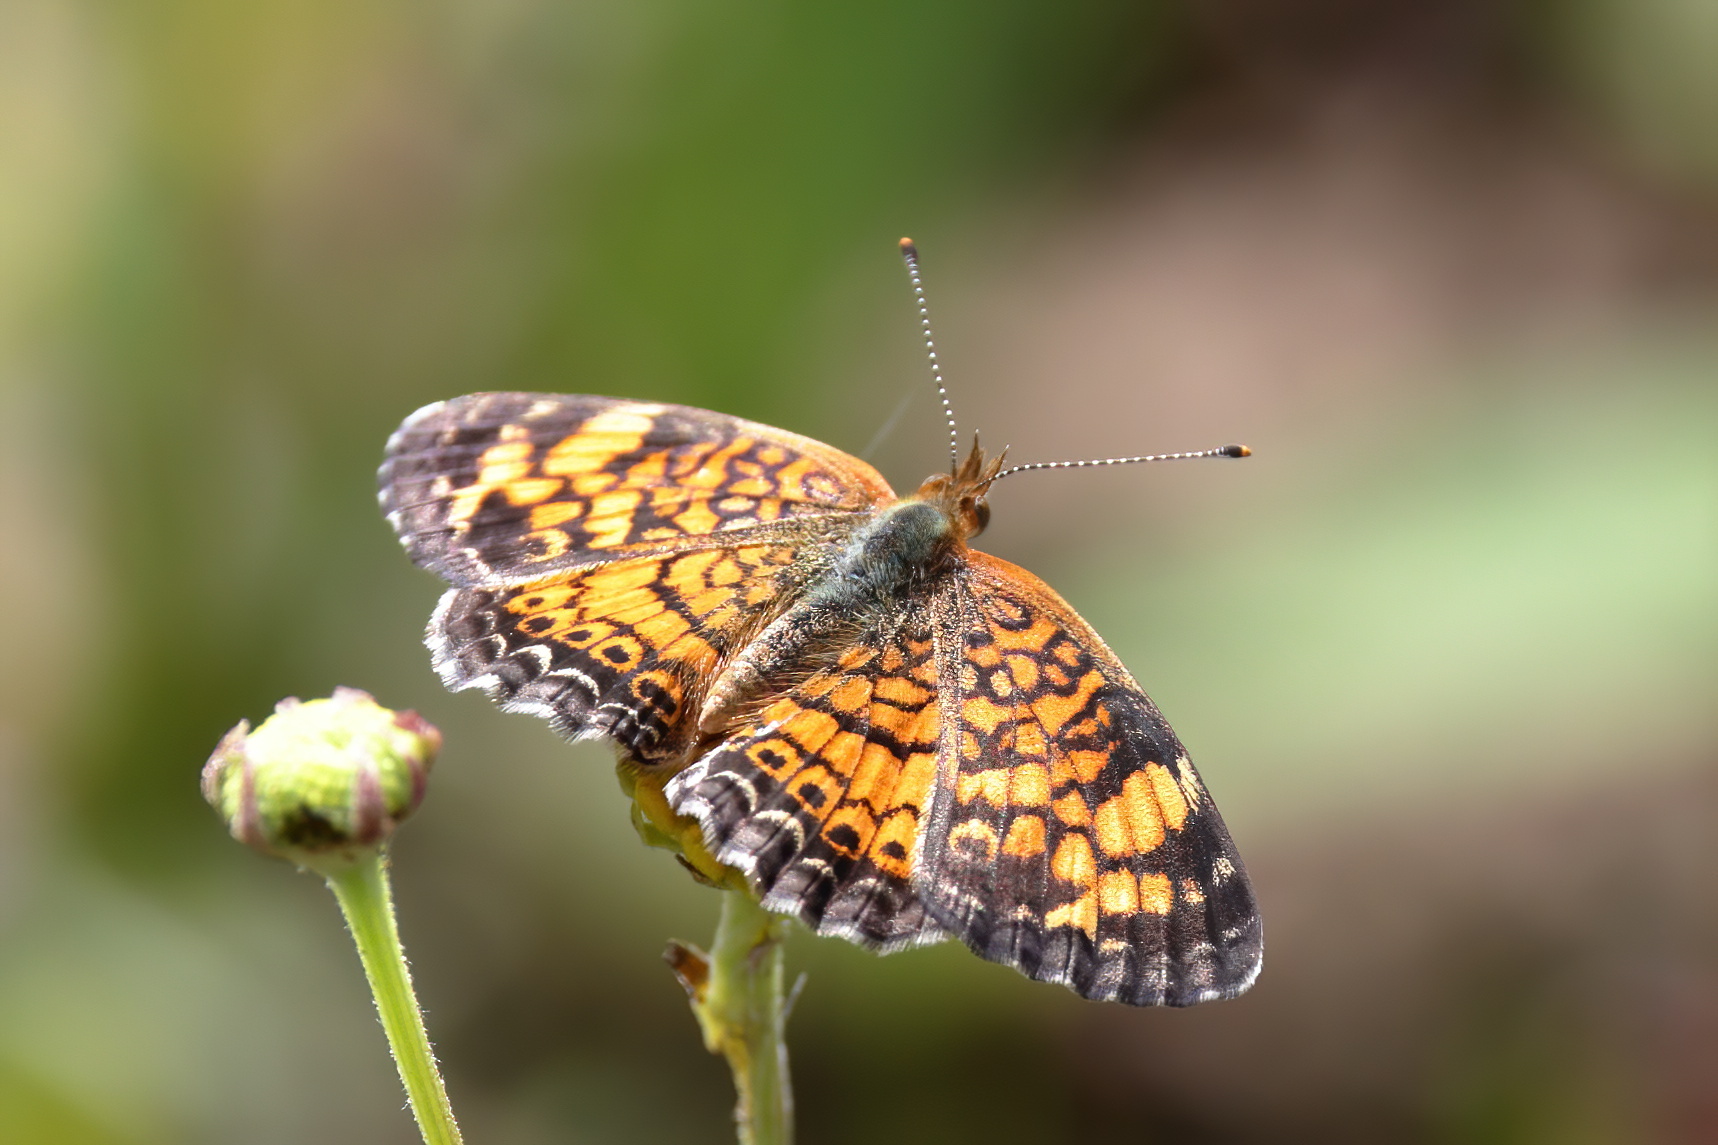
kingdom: Animalia
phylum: Arthropoda
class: Insecta
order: Lepidoptera
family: Nymphalidae
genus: Phyciodes
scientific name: Phyciodes tharos
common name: Pearl crescent
